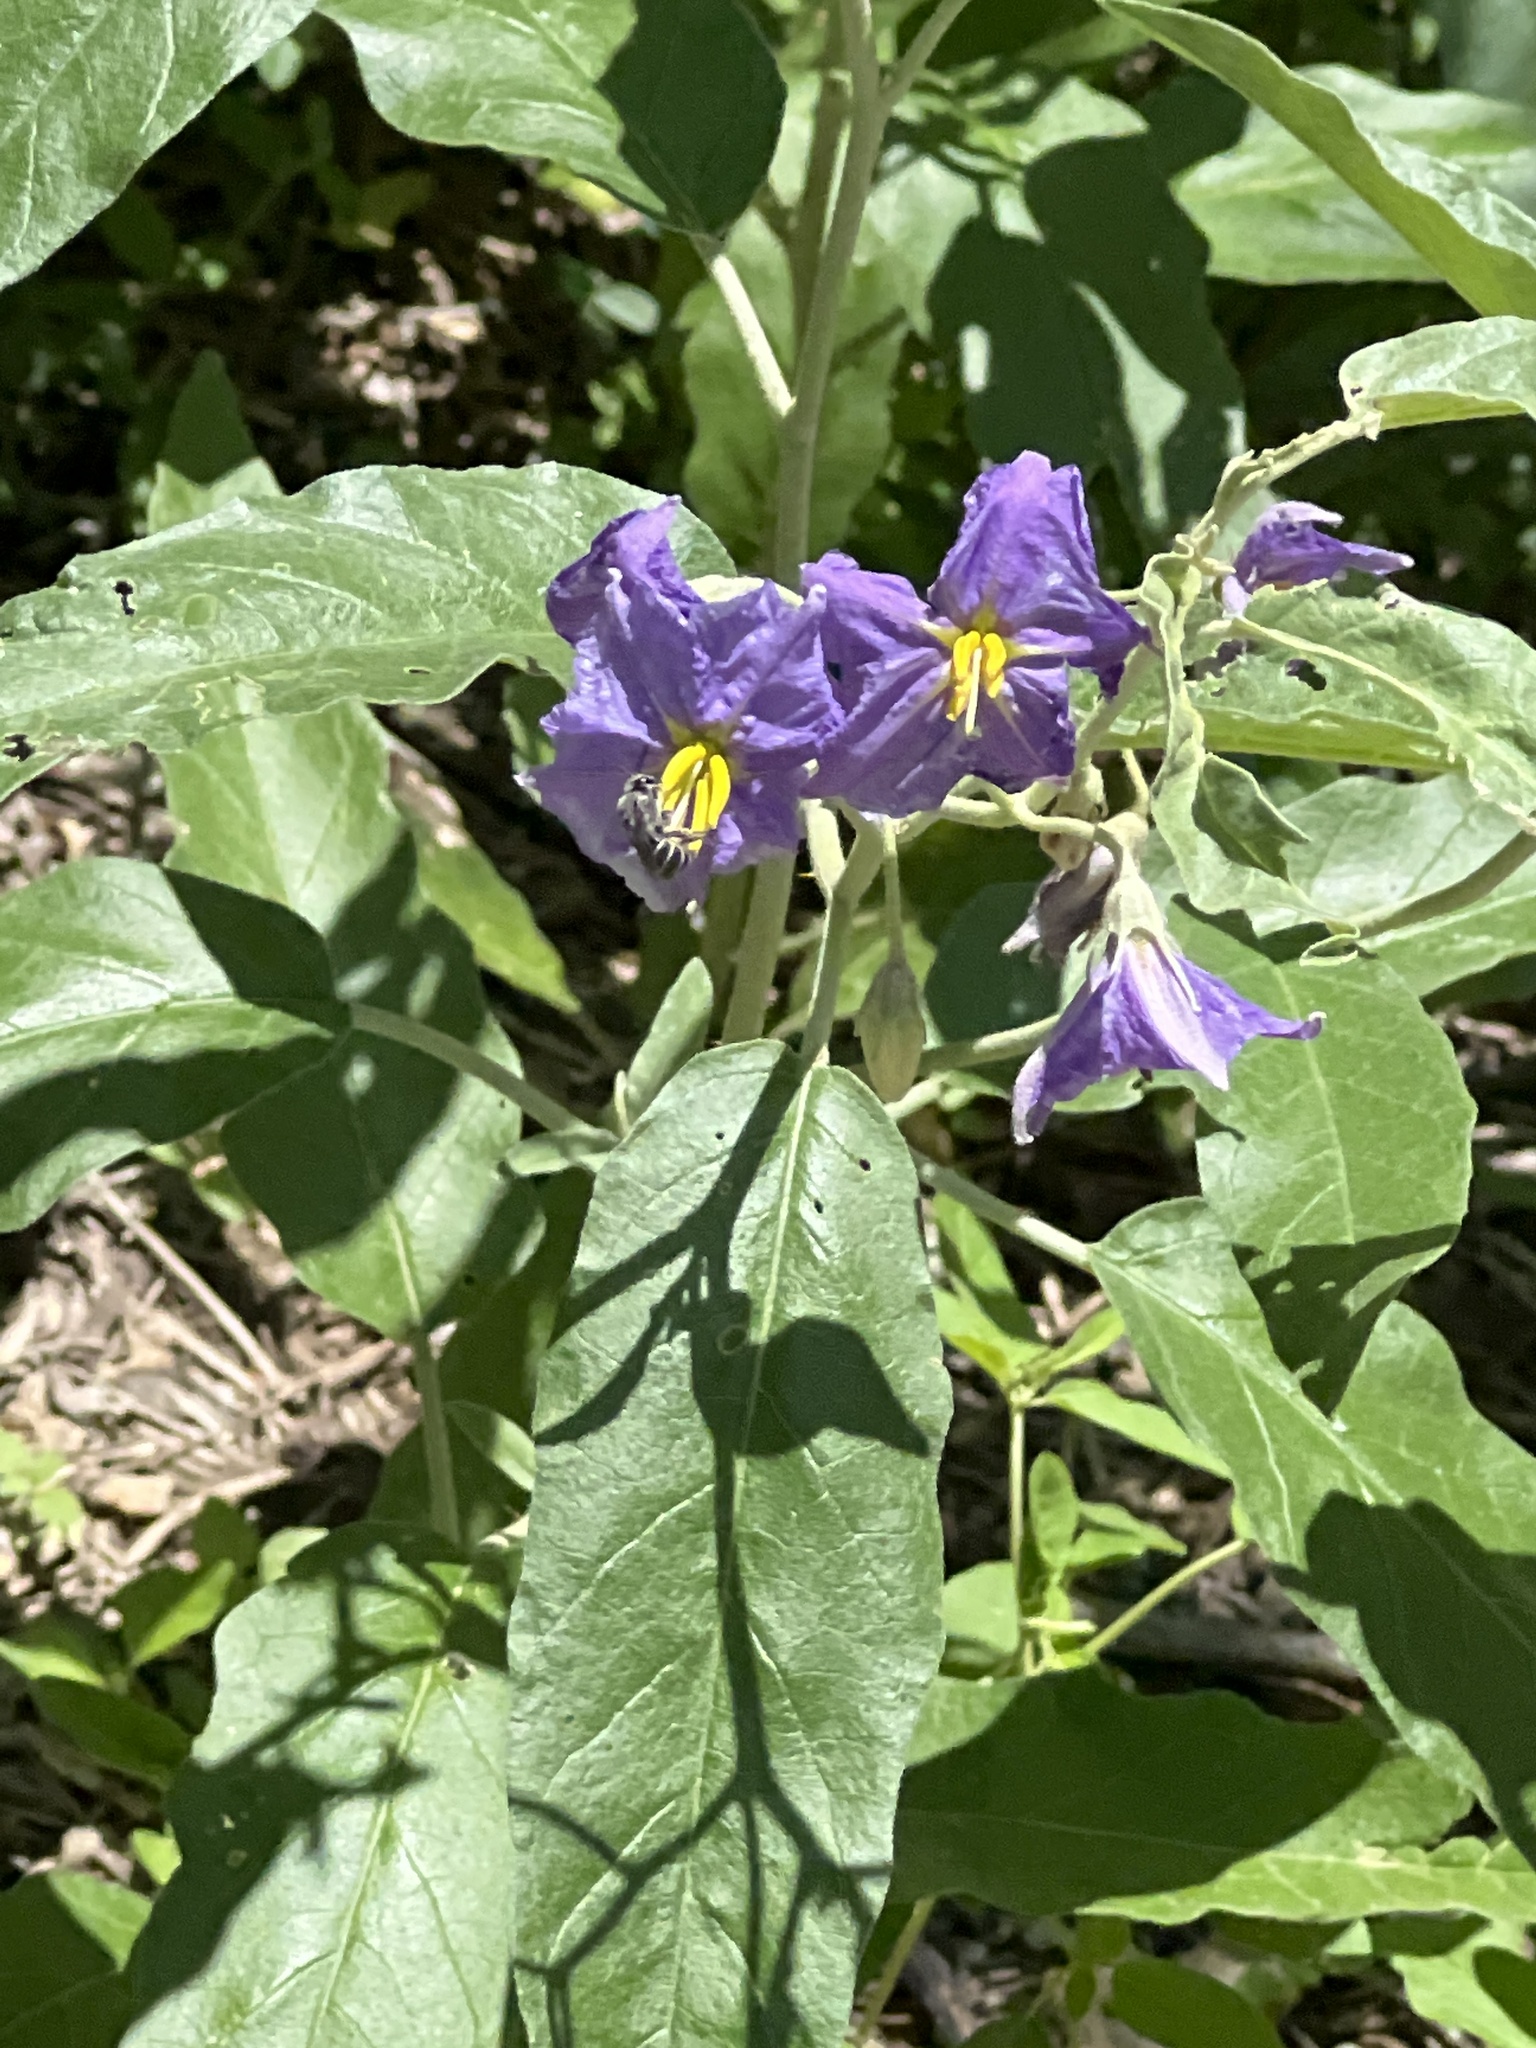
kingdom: Plantae
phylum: Tracheophyta
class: Magnoliopsida
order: Solanales
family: Solanaceae
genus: Solanum
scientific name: Solanum elaeagnifolium
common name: Silverleaf nightshade
